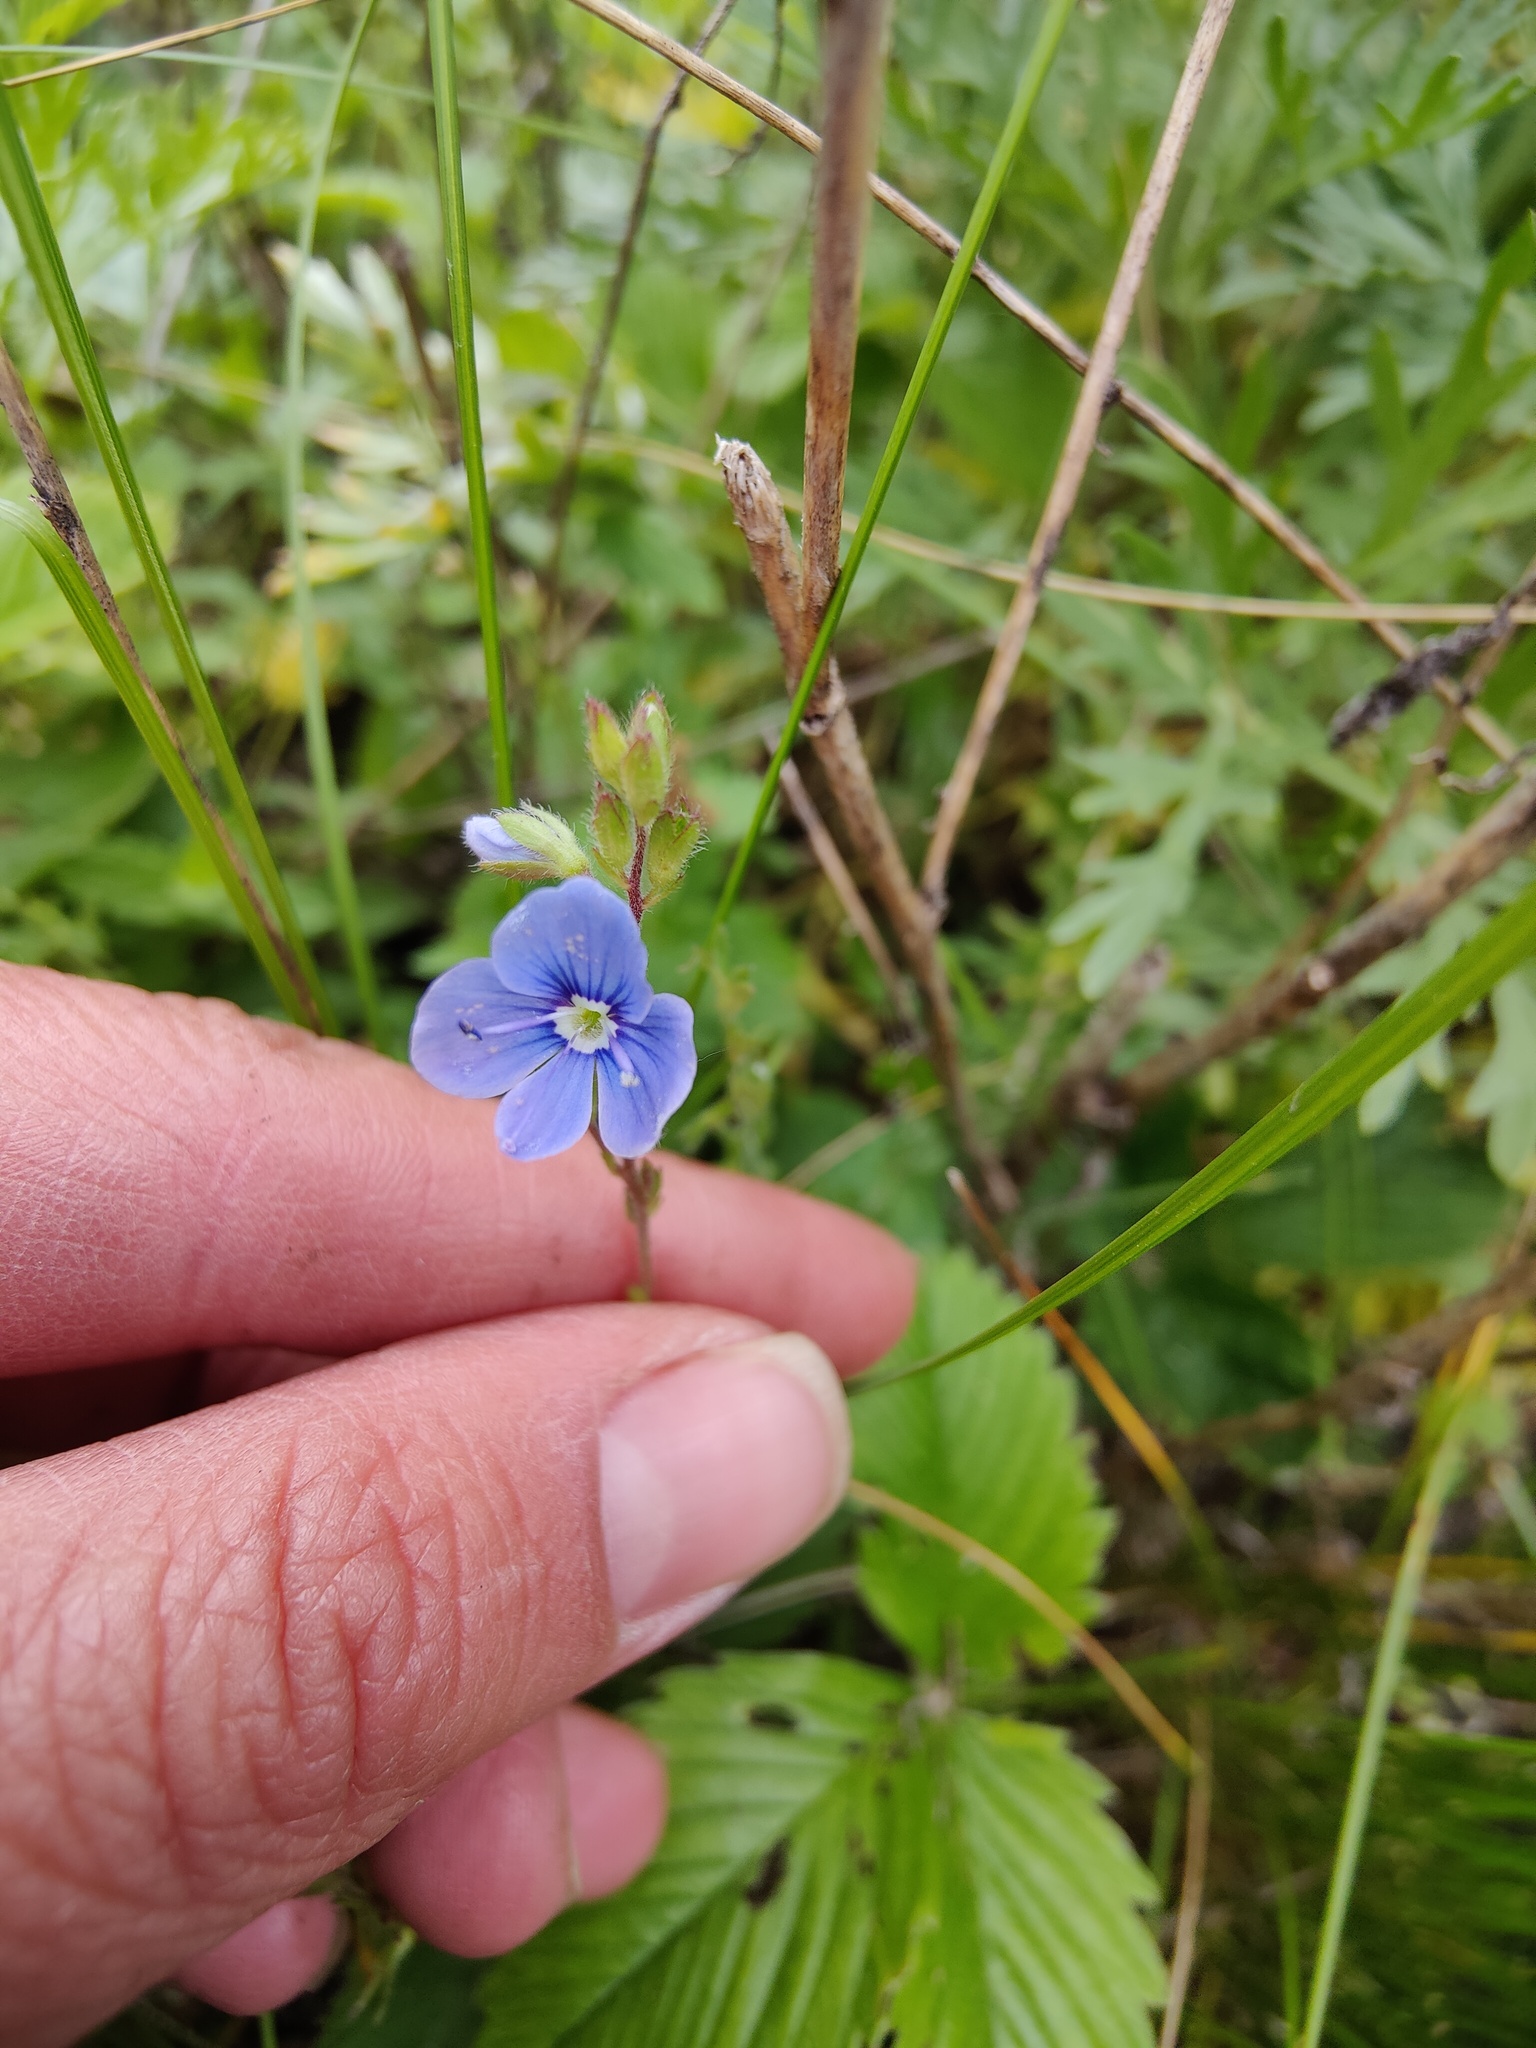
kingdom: Plantae
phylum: Tracheophyta
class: Magnoliopsida
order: Lamiales
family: Plantaginaceae
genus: Veronica
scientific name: Veronica chamaedrys
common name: Germander speedwell
